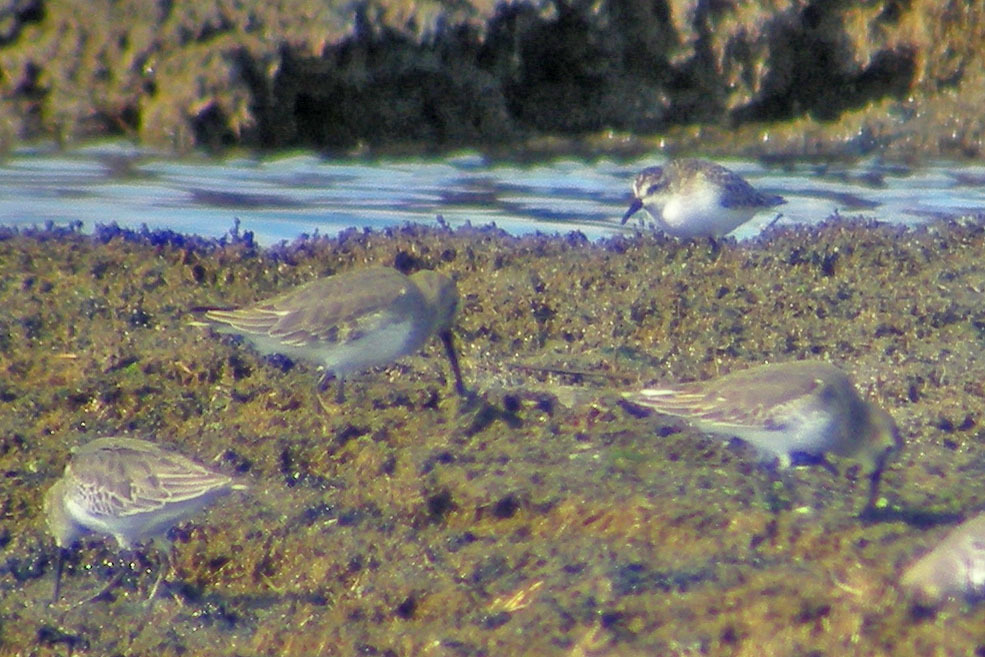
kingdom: Animalia
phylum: Chordata
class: Aves
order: Charadriiformes
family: Scolopacidae
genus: Calidris
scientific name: Calidris
